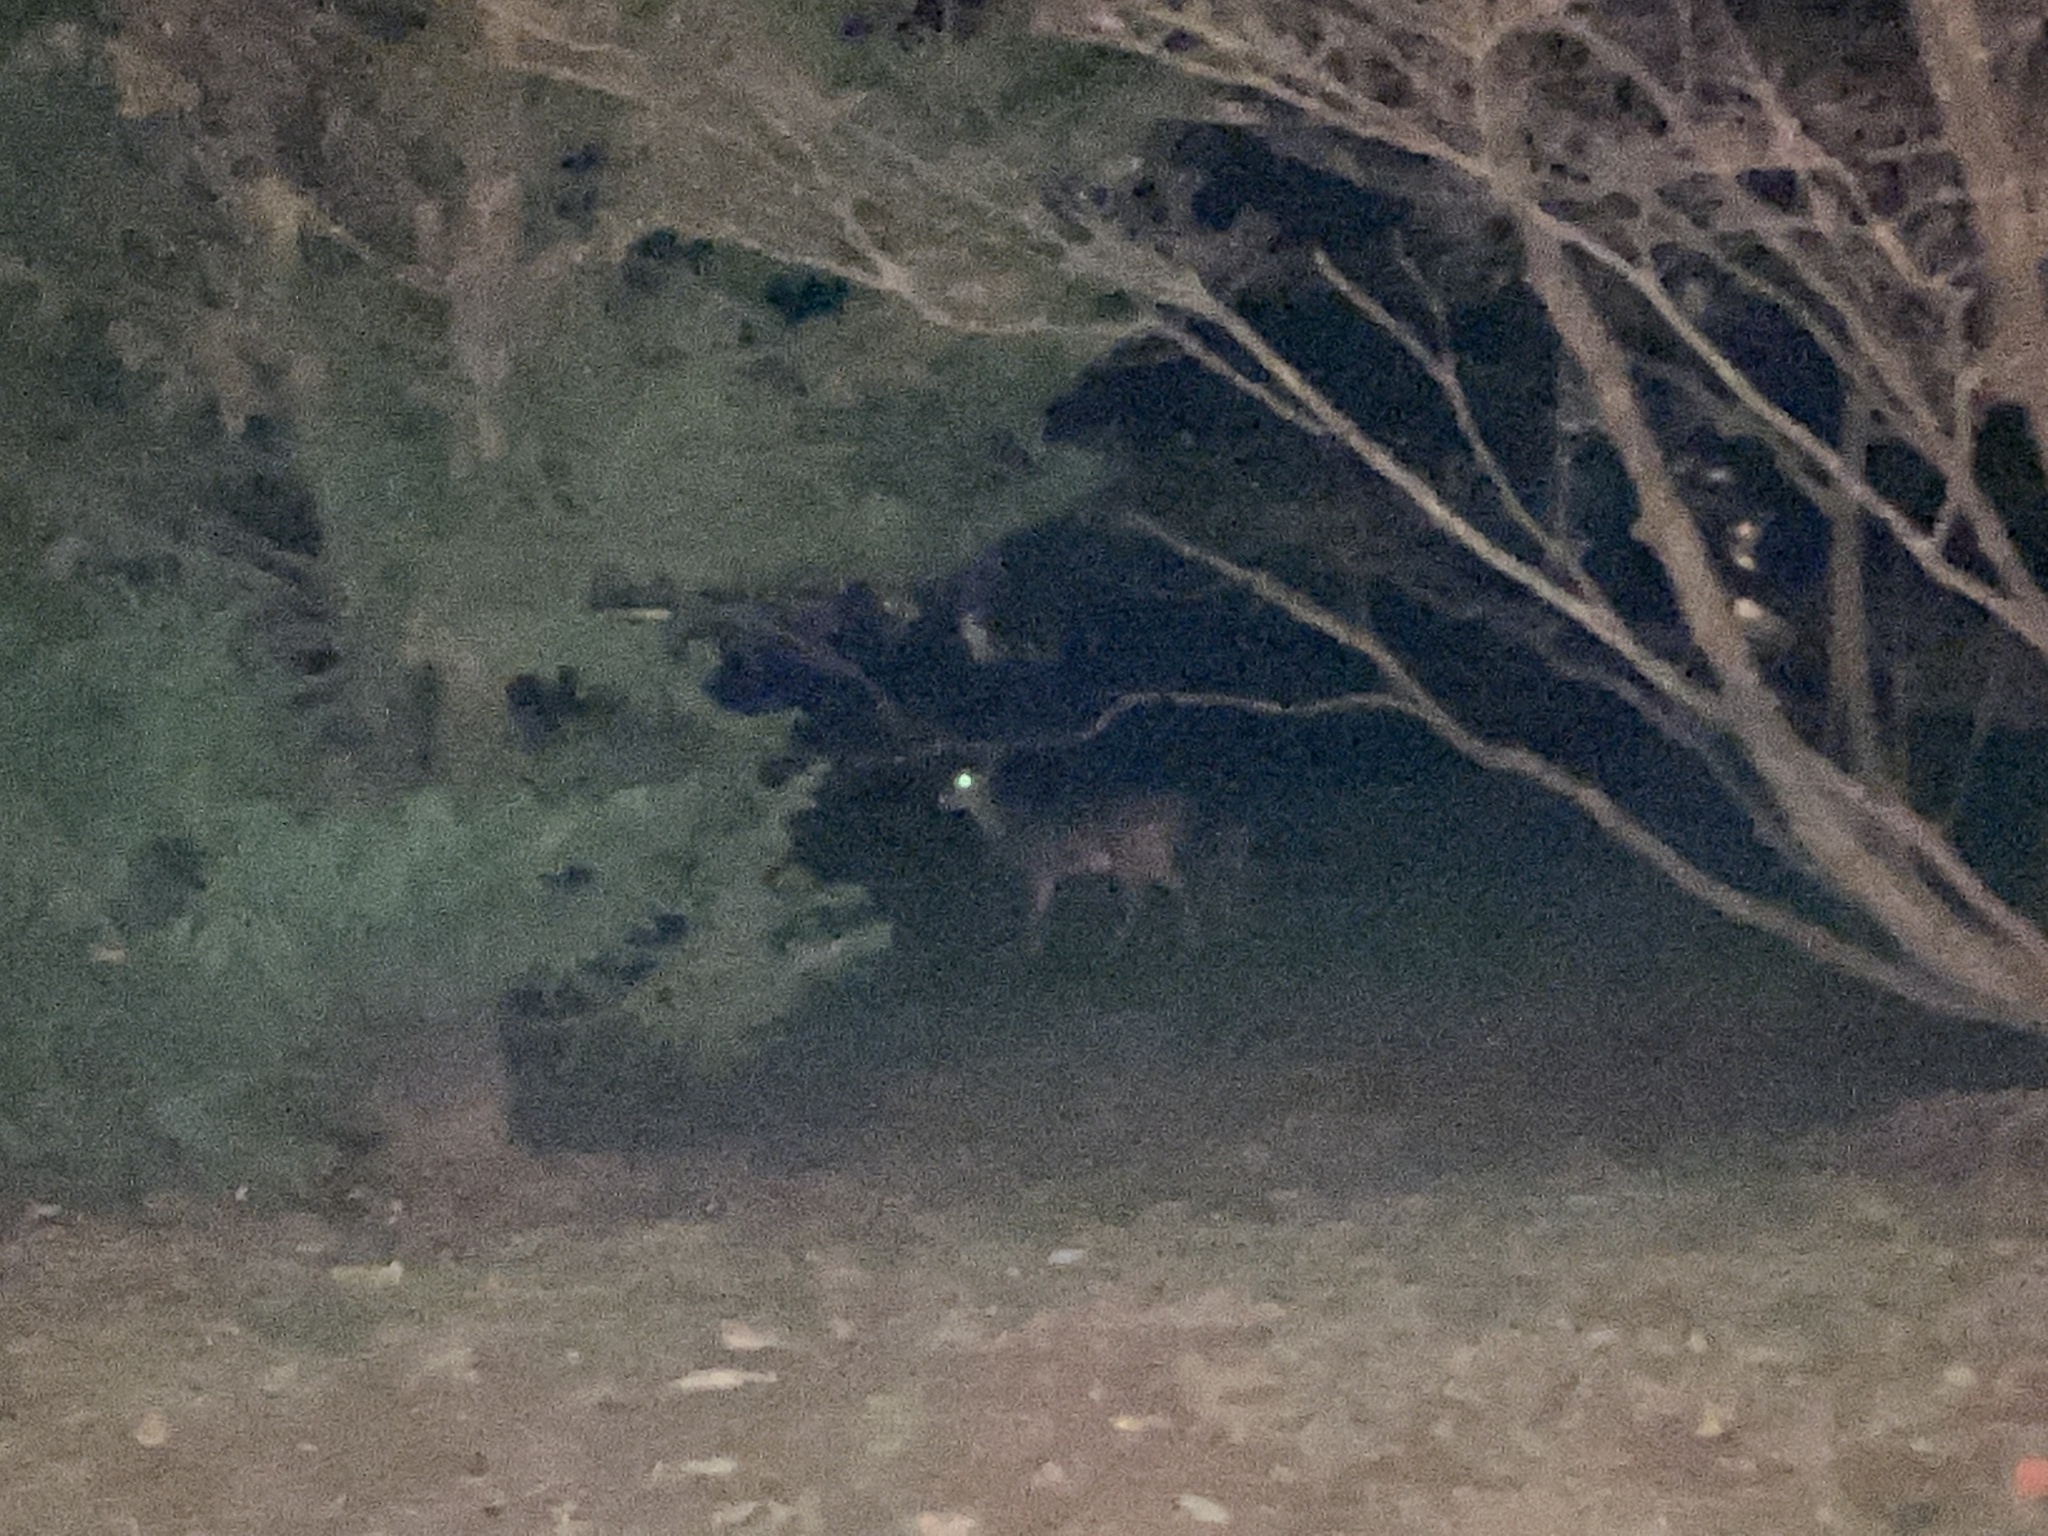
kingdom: Animalia
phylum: Chordata
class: Mammalia
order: Artiodactyla
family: Cervidae
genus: Odocoileus
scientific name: Odocoileus virginianus
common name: White-tailed deer
